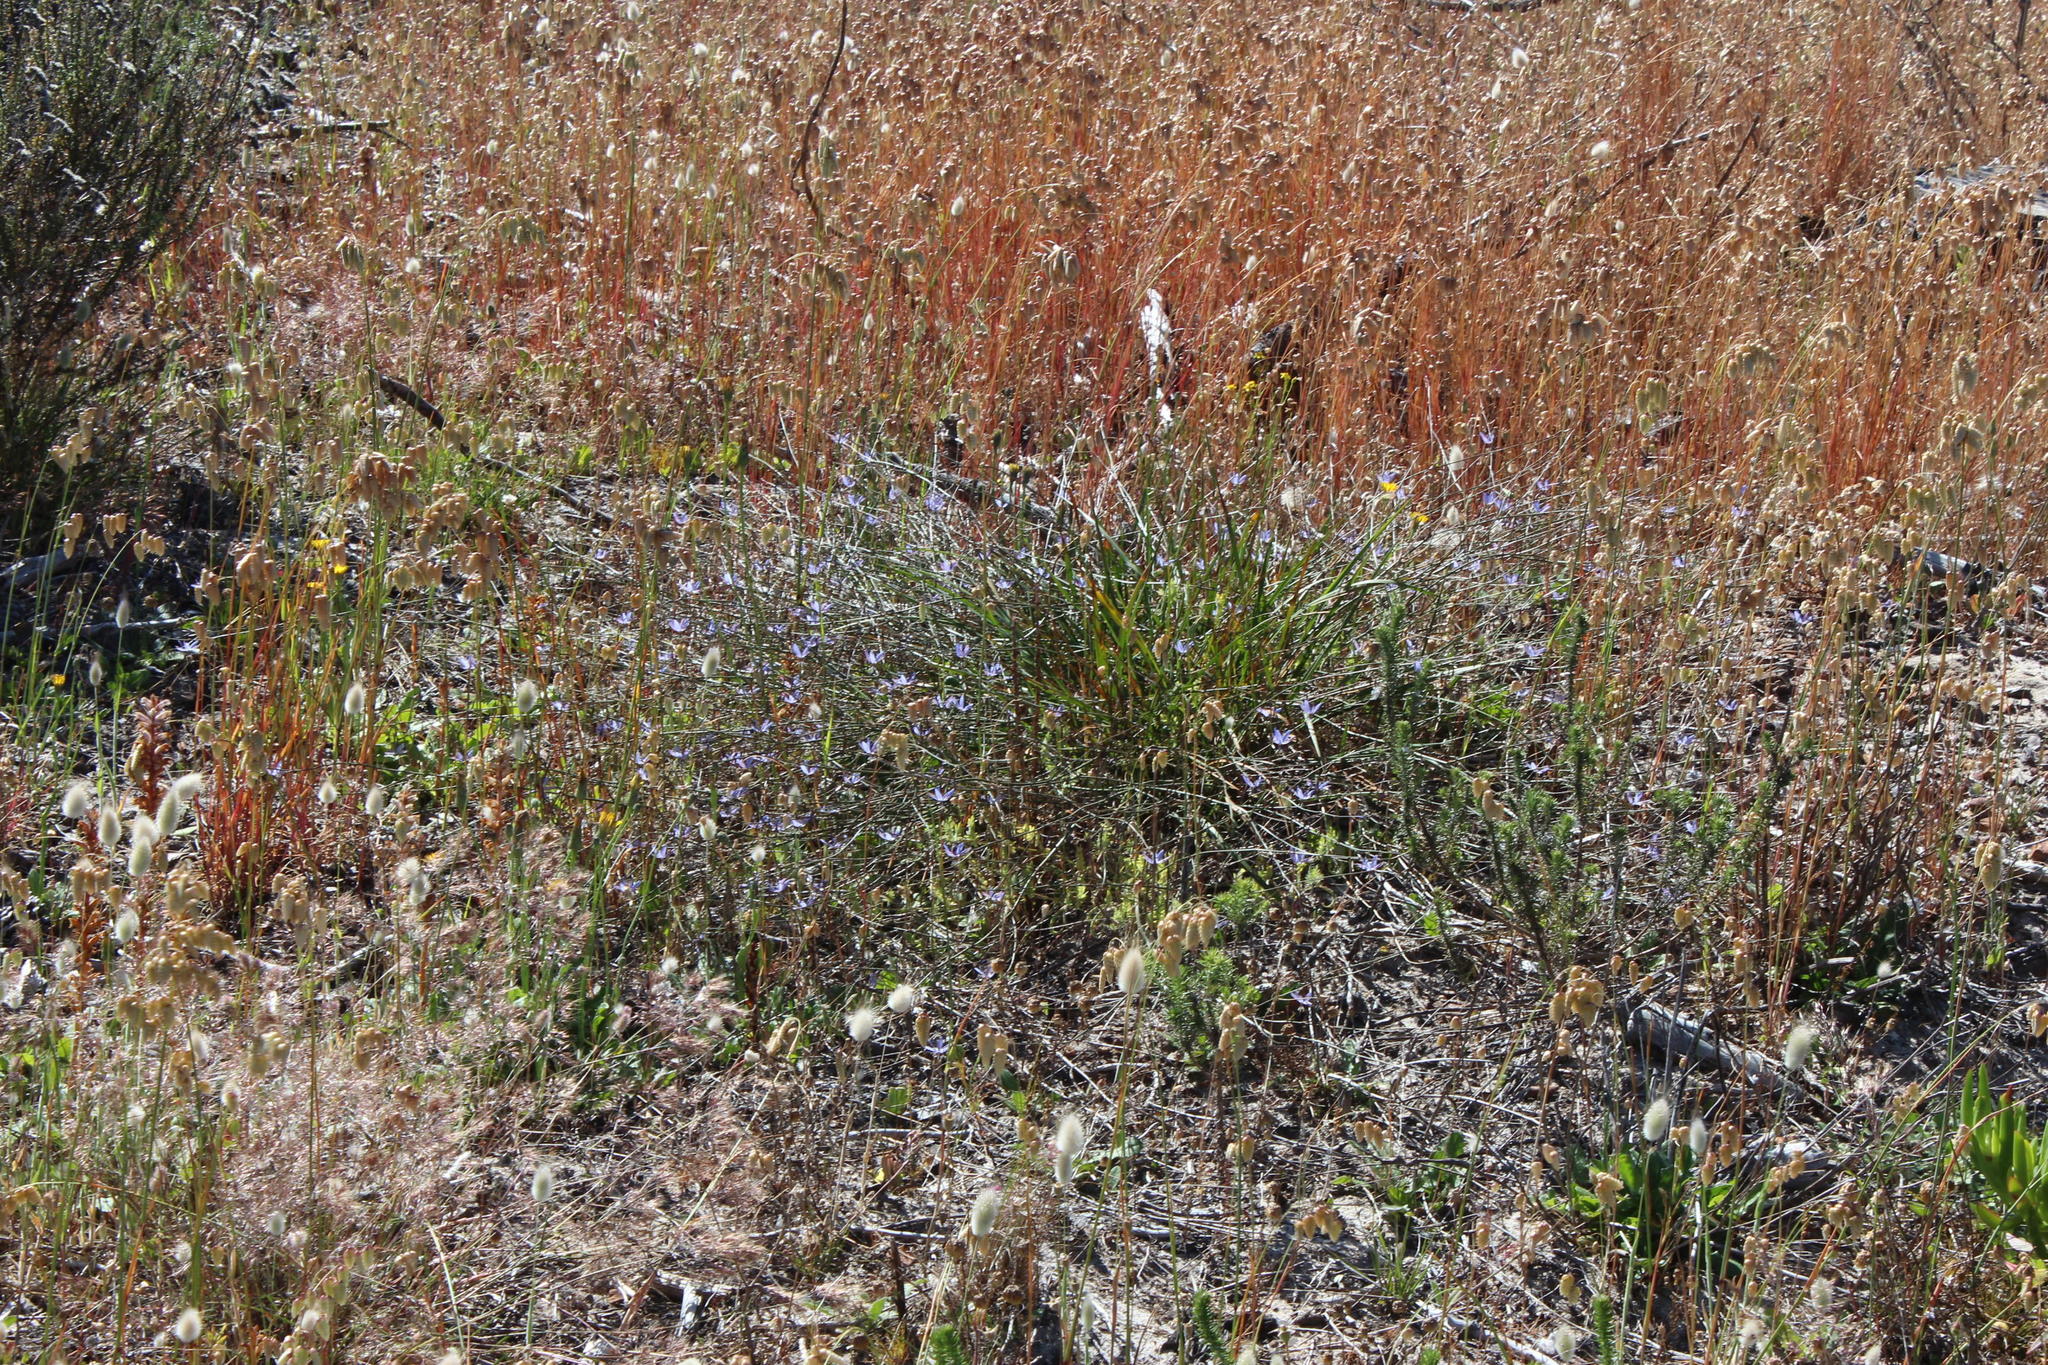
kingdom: Plantae
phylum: Tracheophyta
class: Liliopsida
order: Asparagales
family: Asphodelaceae
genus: Caesia
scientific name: Caesia contorta
